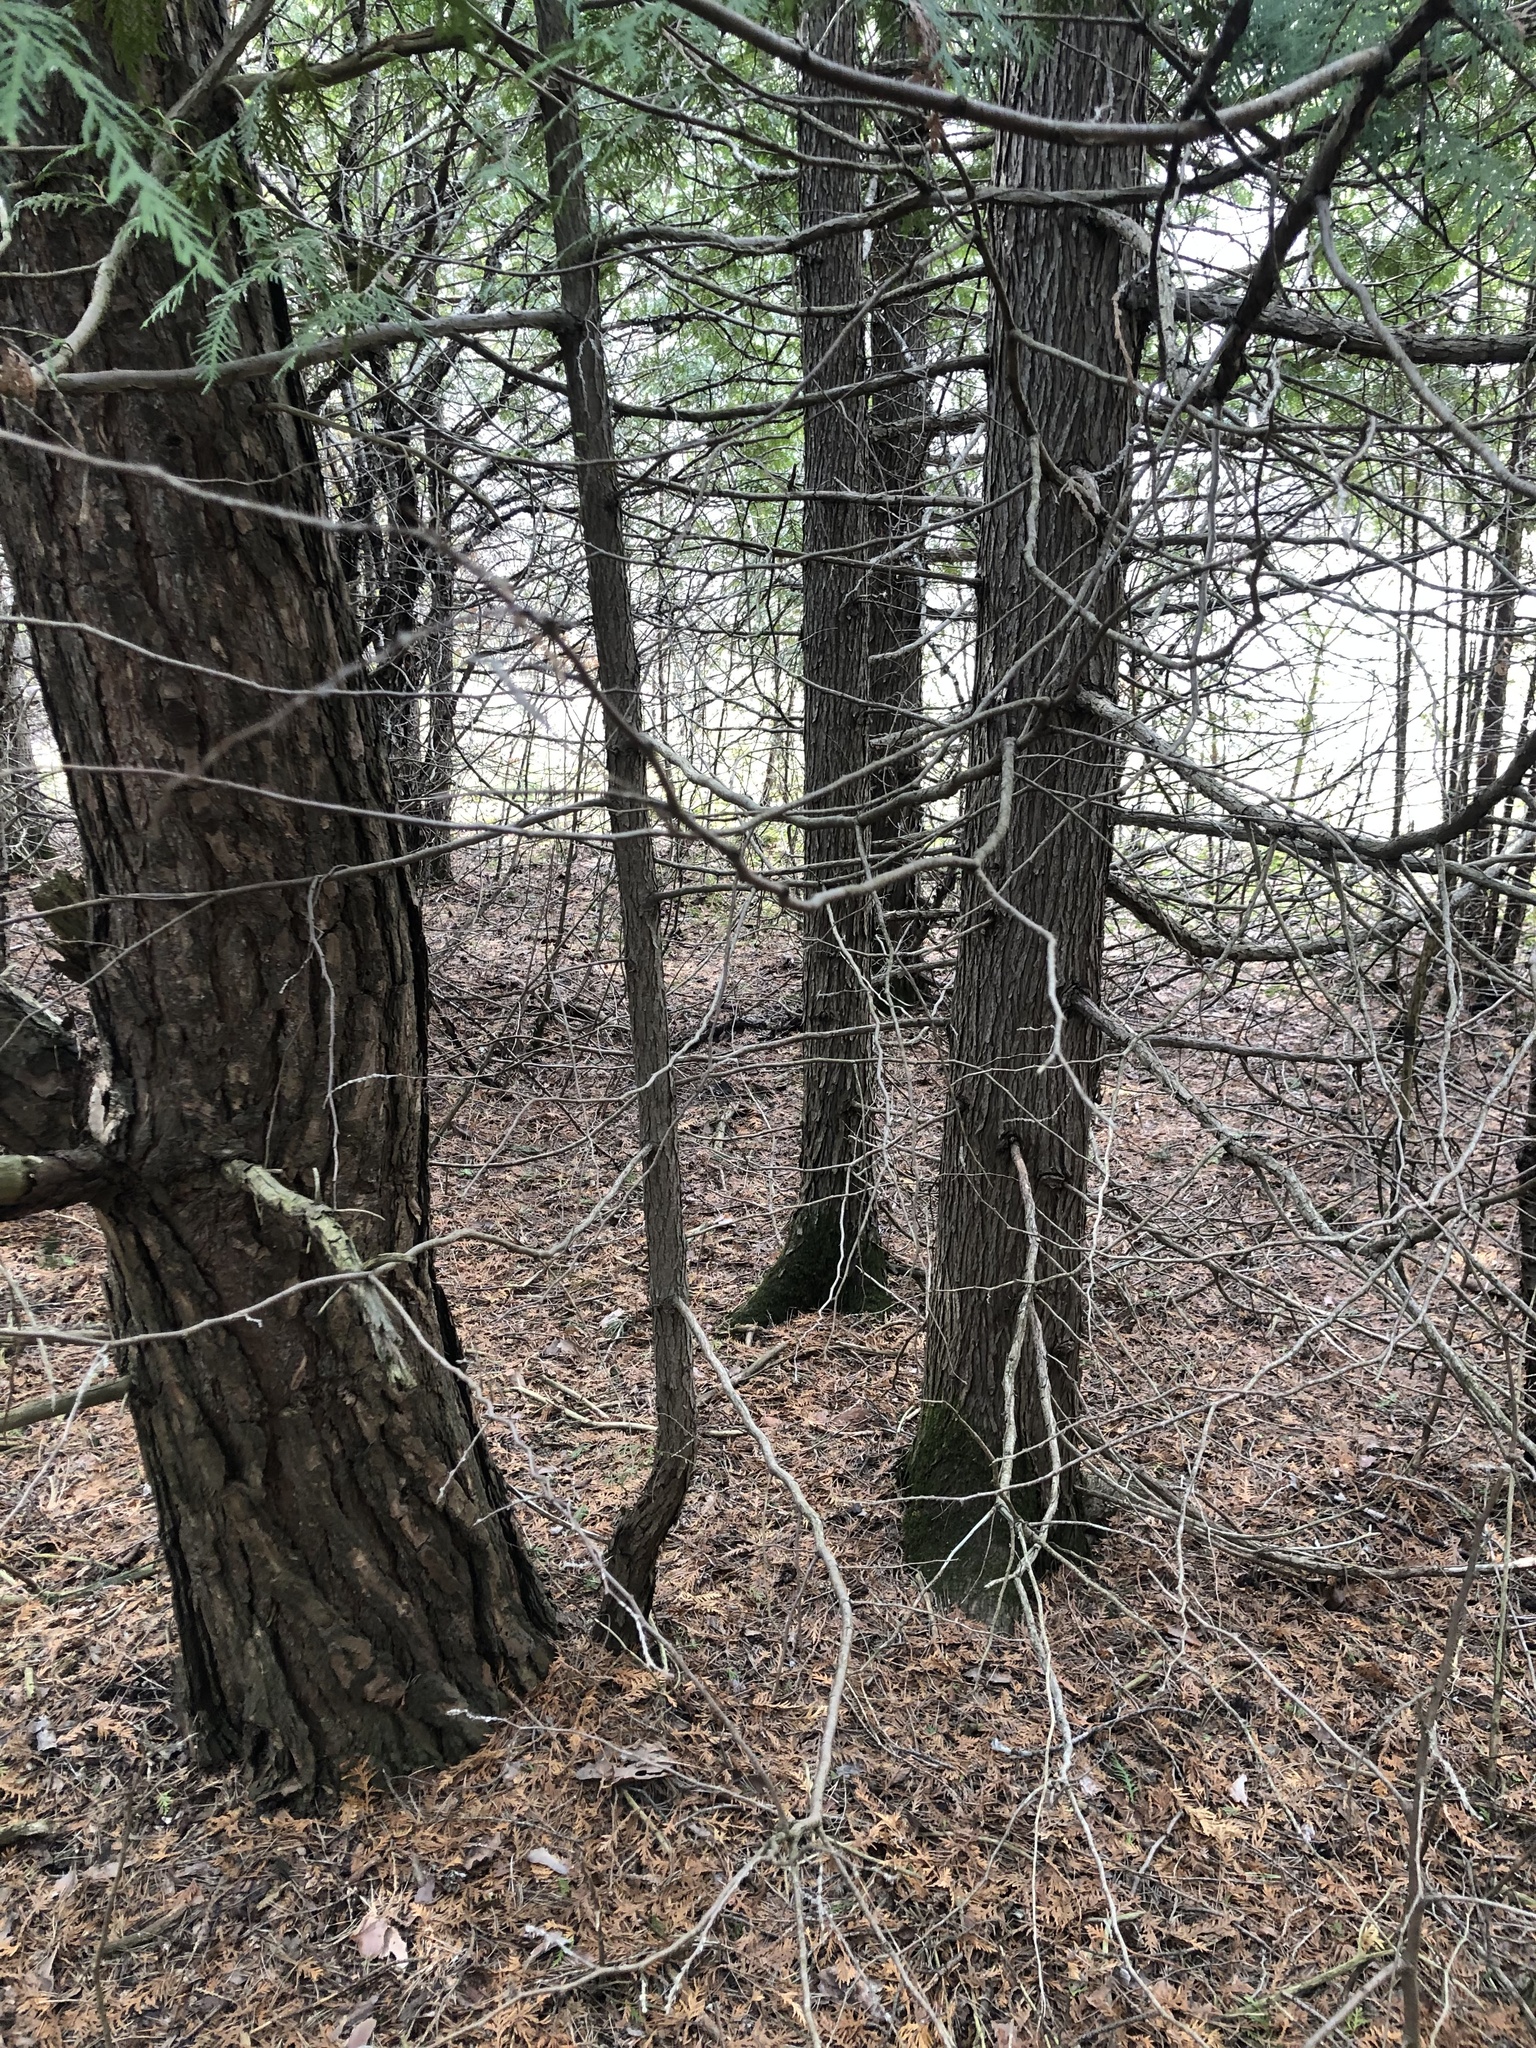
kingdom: Plantae
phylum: Tracheophyta
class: Pinopsida
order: Pinales
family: Cupressaceae
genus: Thuja
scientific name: Thuja occidentalis
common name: Northern white-cedar
